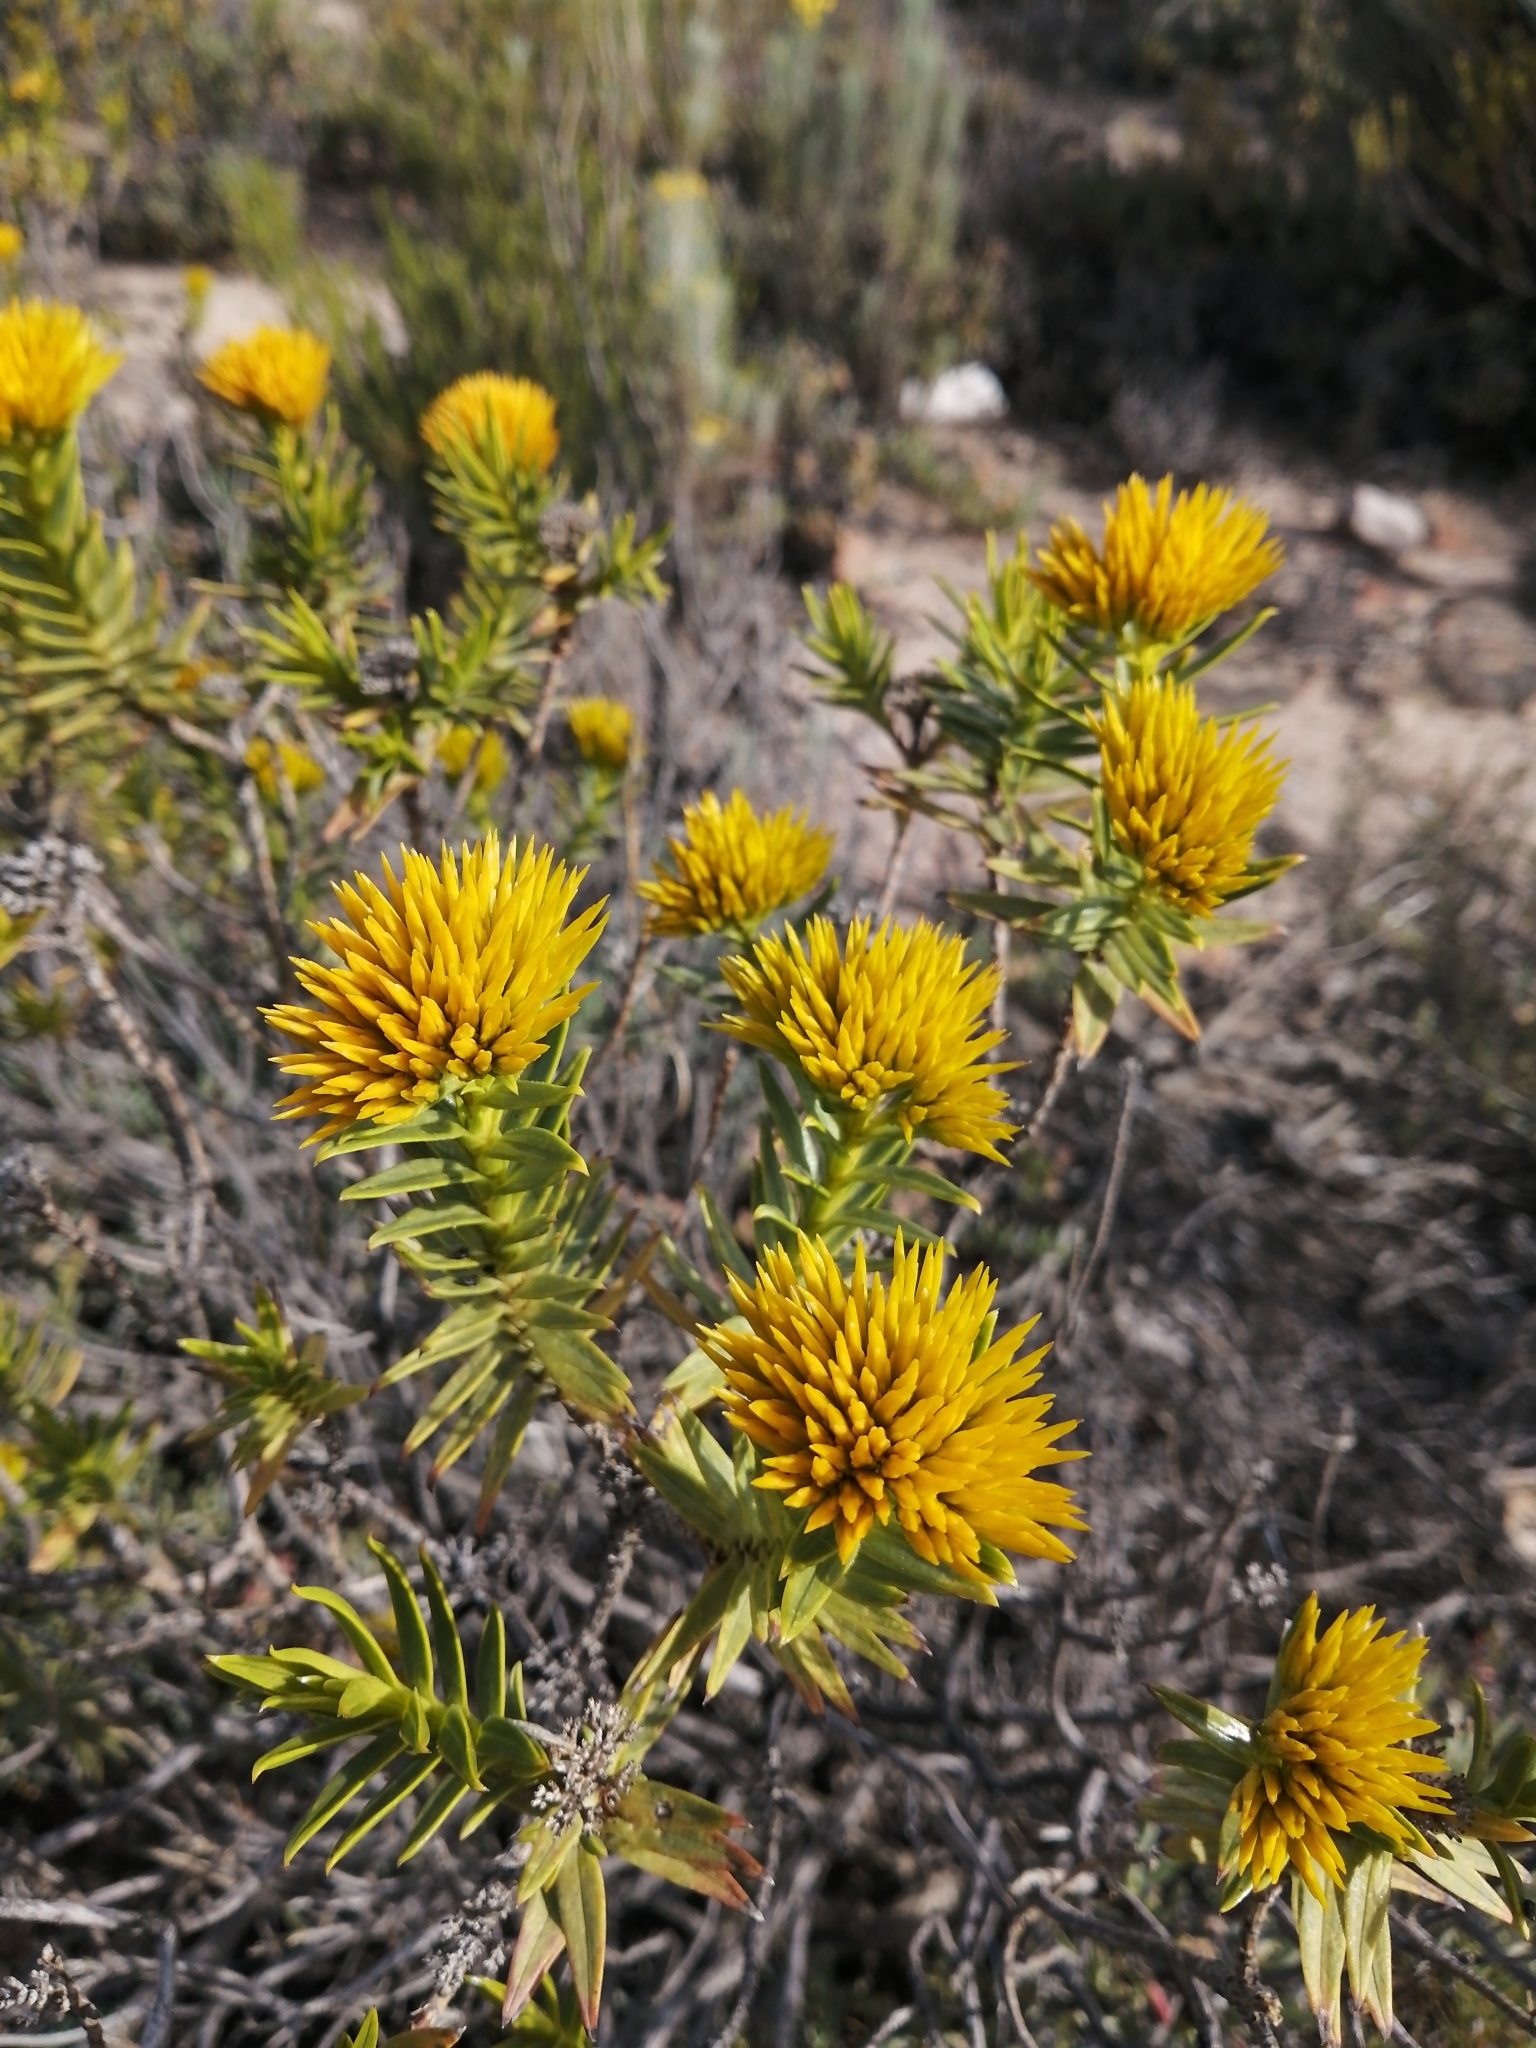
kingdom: Plantae
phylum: Tracheophyta
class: Magnoliopsida
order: Asterales
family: Asteraceae
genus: Pteronia
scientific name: Pteronia fasciculata
